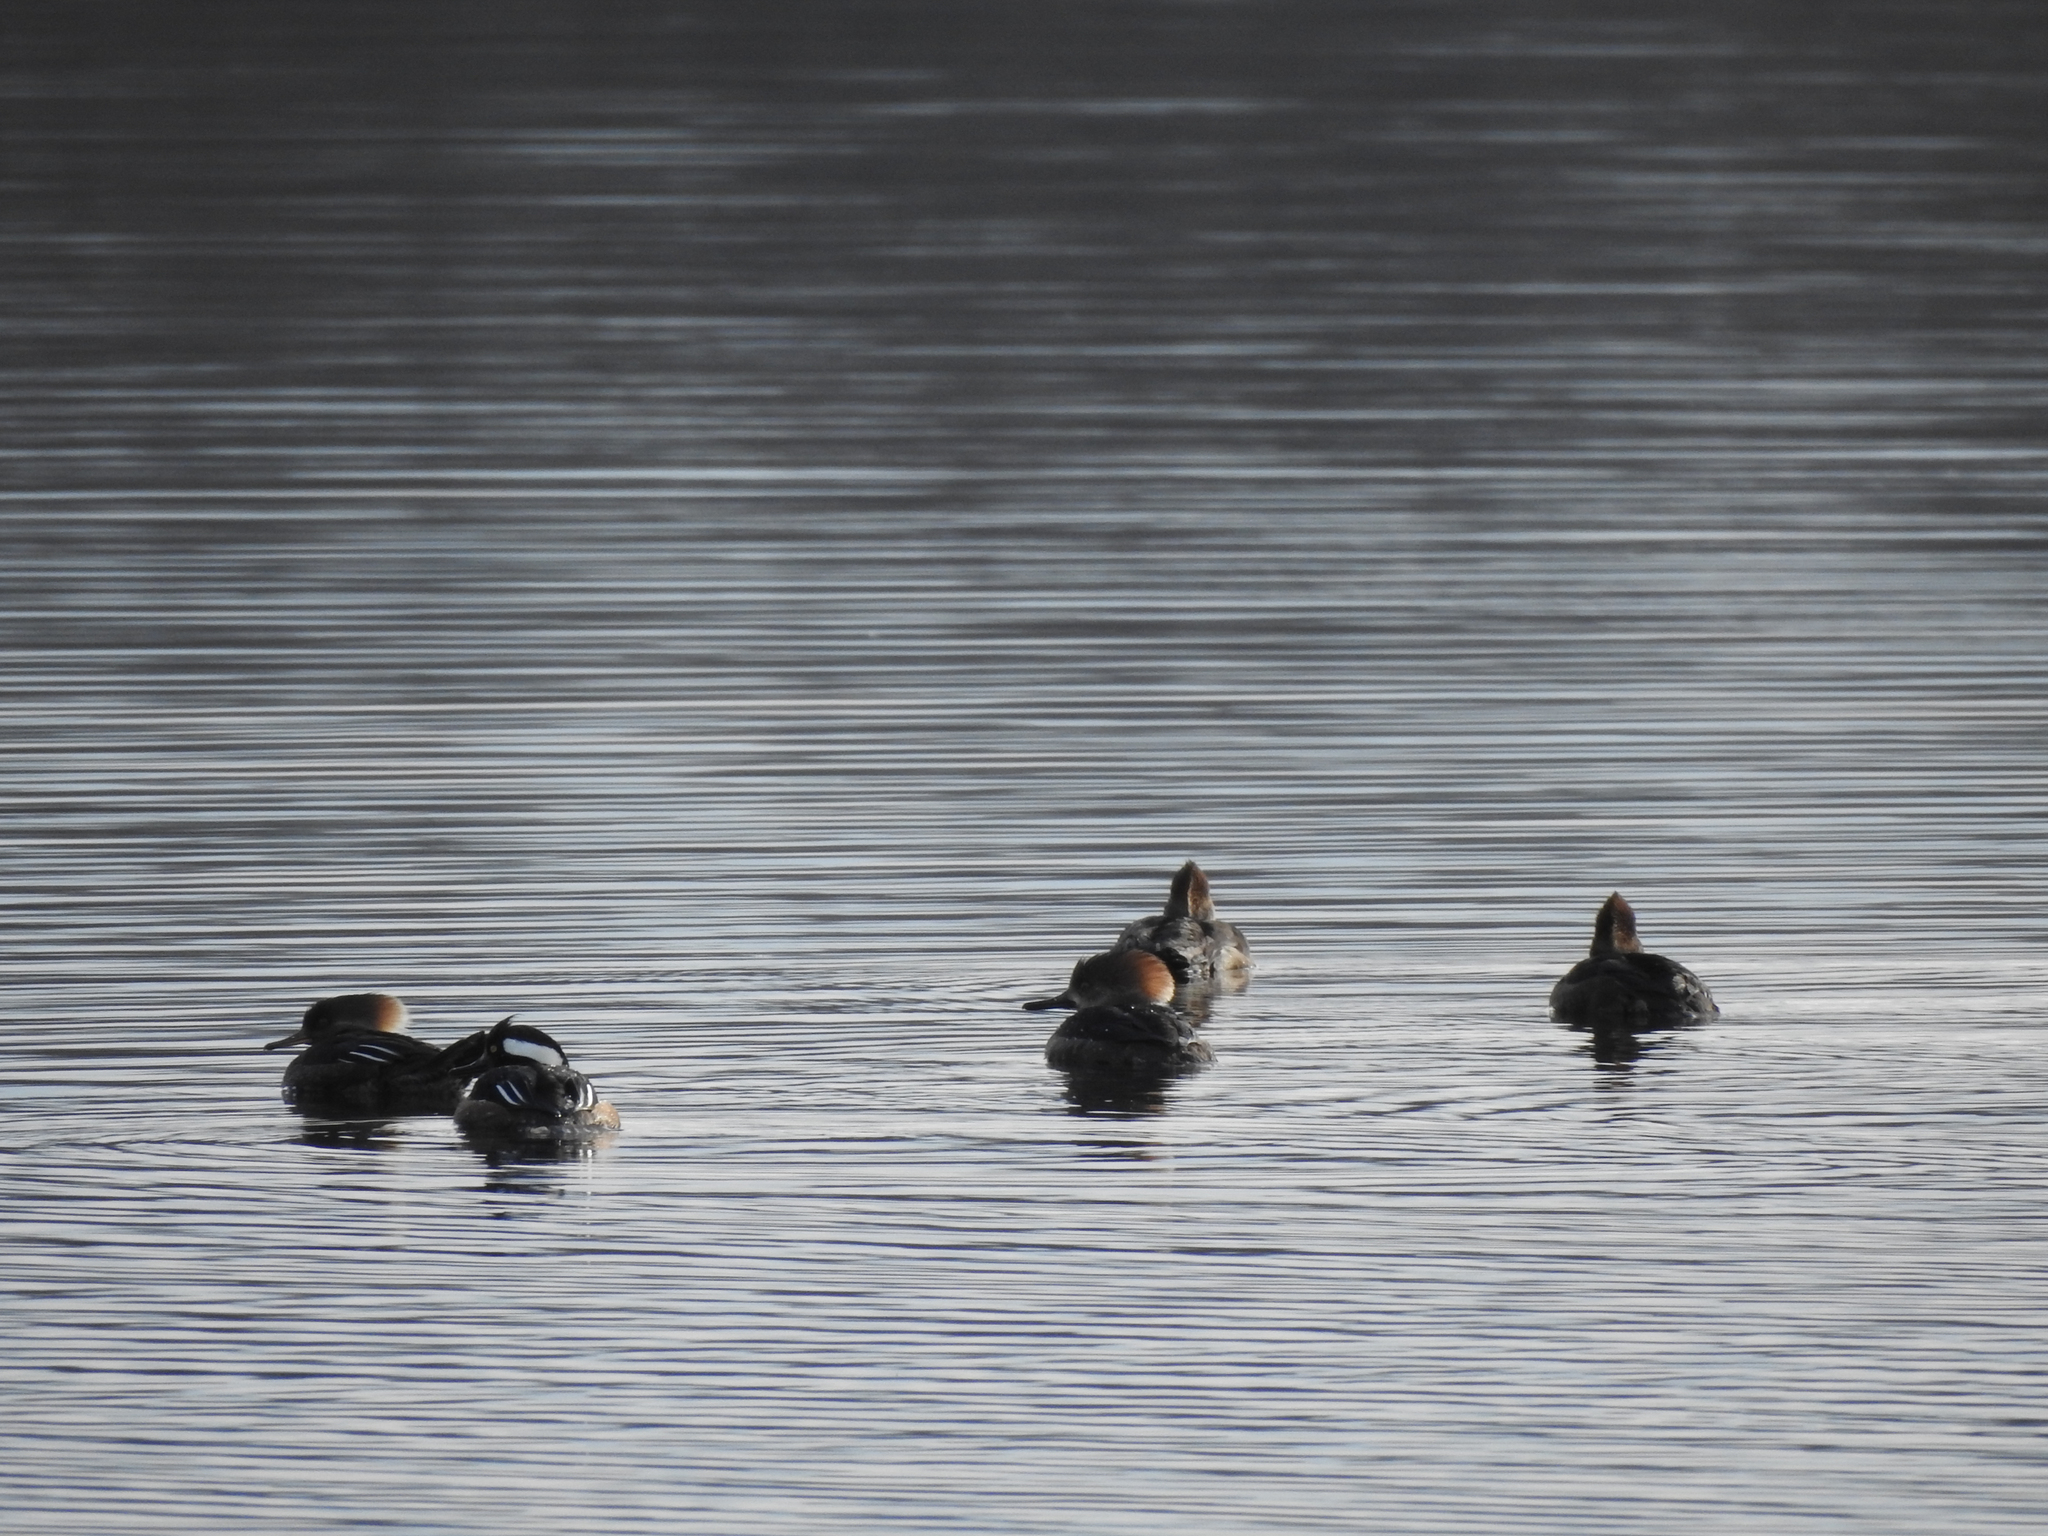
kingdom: Animalia
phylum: Chordata
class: Aves
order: Anseriformes
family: Anatidae
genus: Lophodytes
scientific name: Lophodytes cucullatus
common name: Hooded merganser
